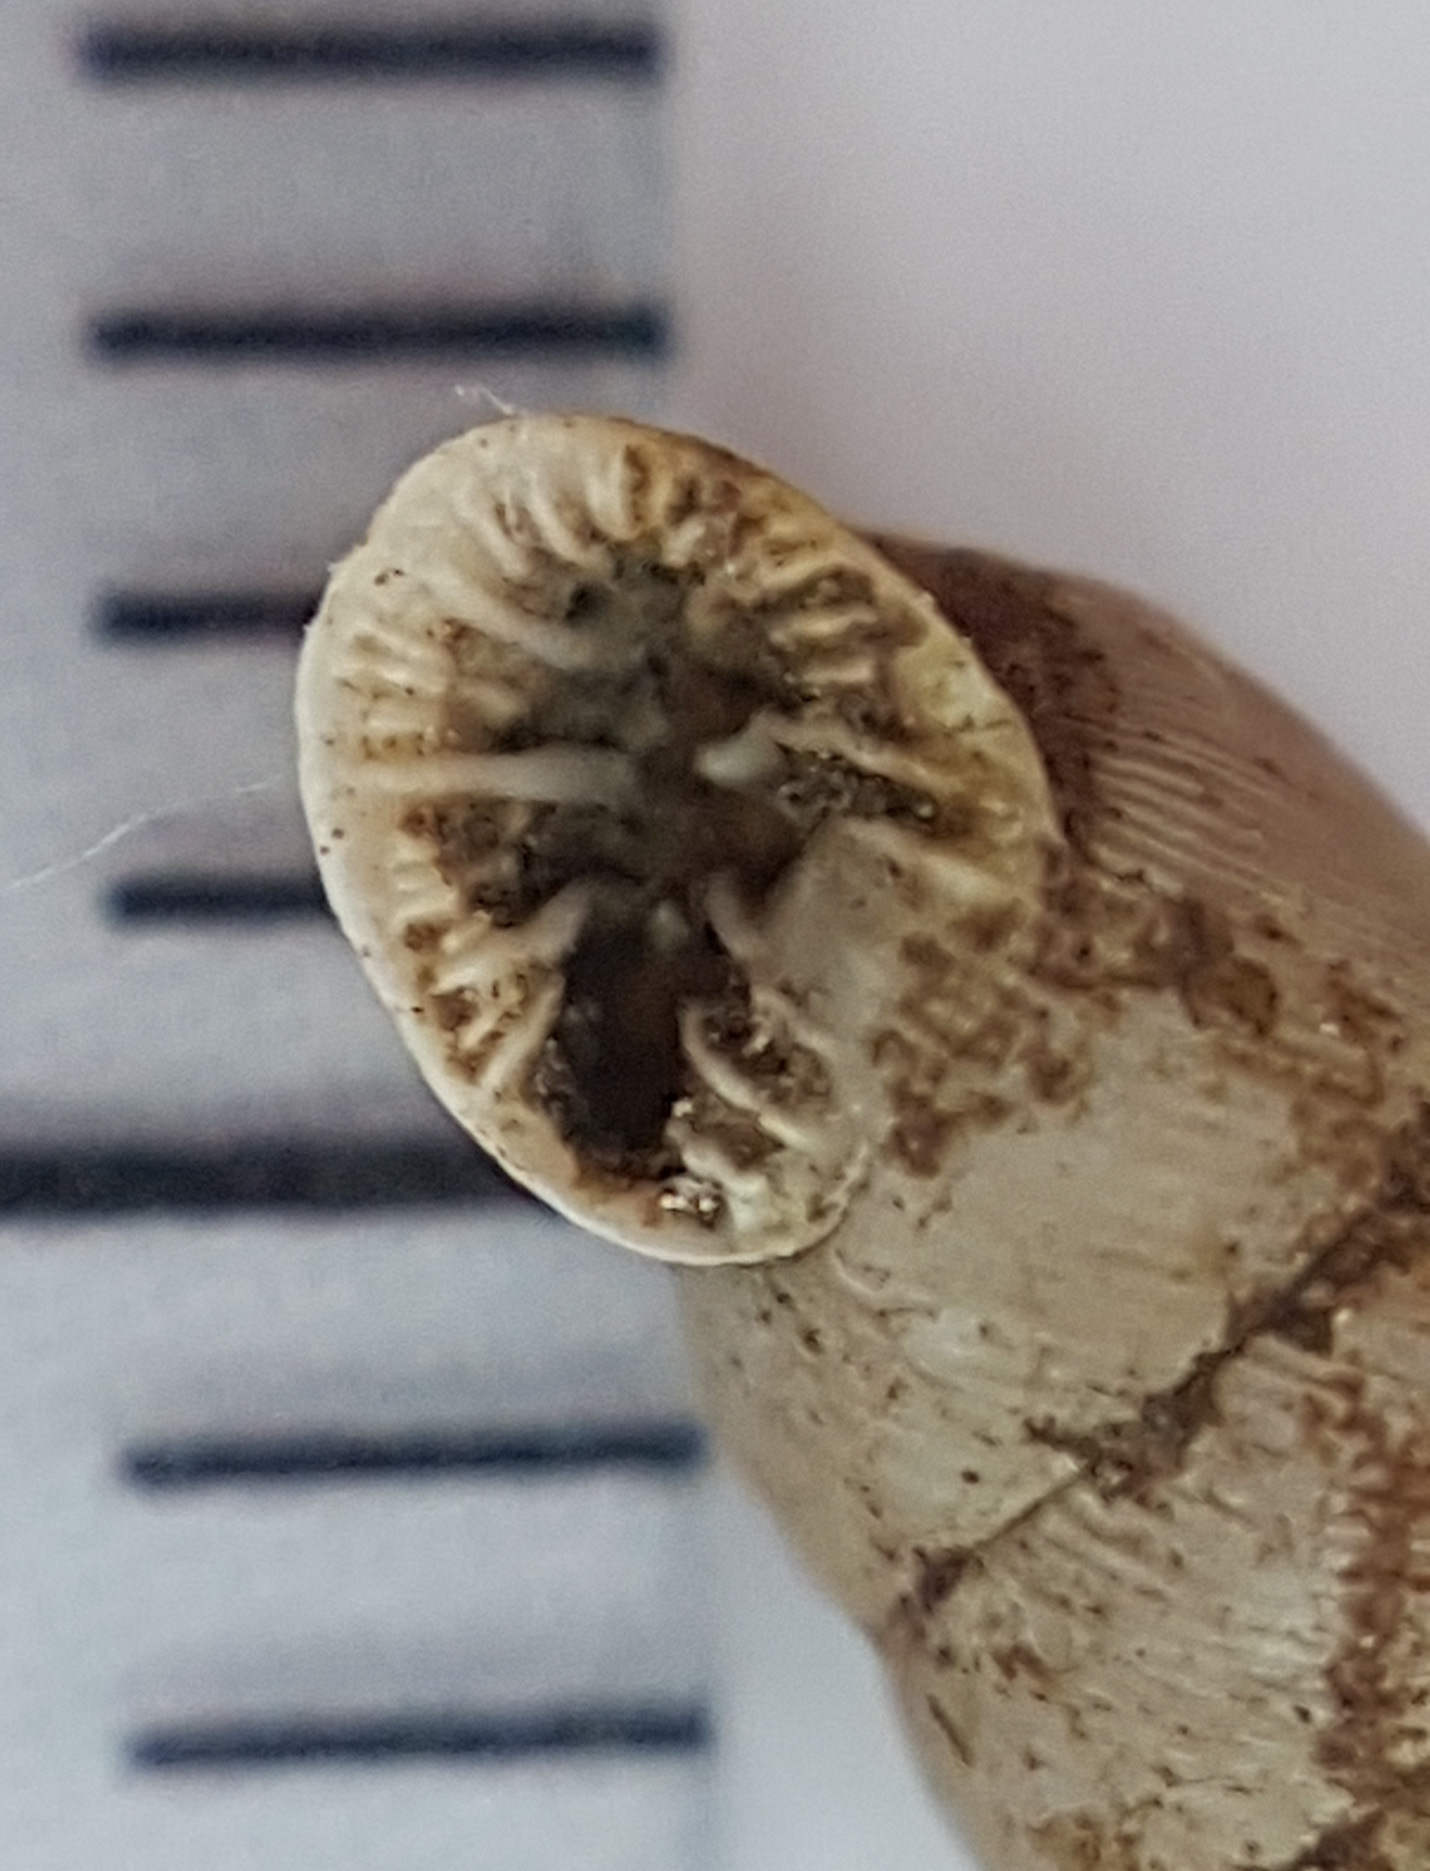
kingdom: Animalia
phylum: Mollusca
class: Gastropoda
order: Stylommatophora
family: Chondrinidae
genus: Abida
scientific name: Abida polyodon
